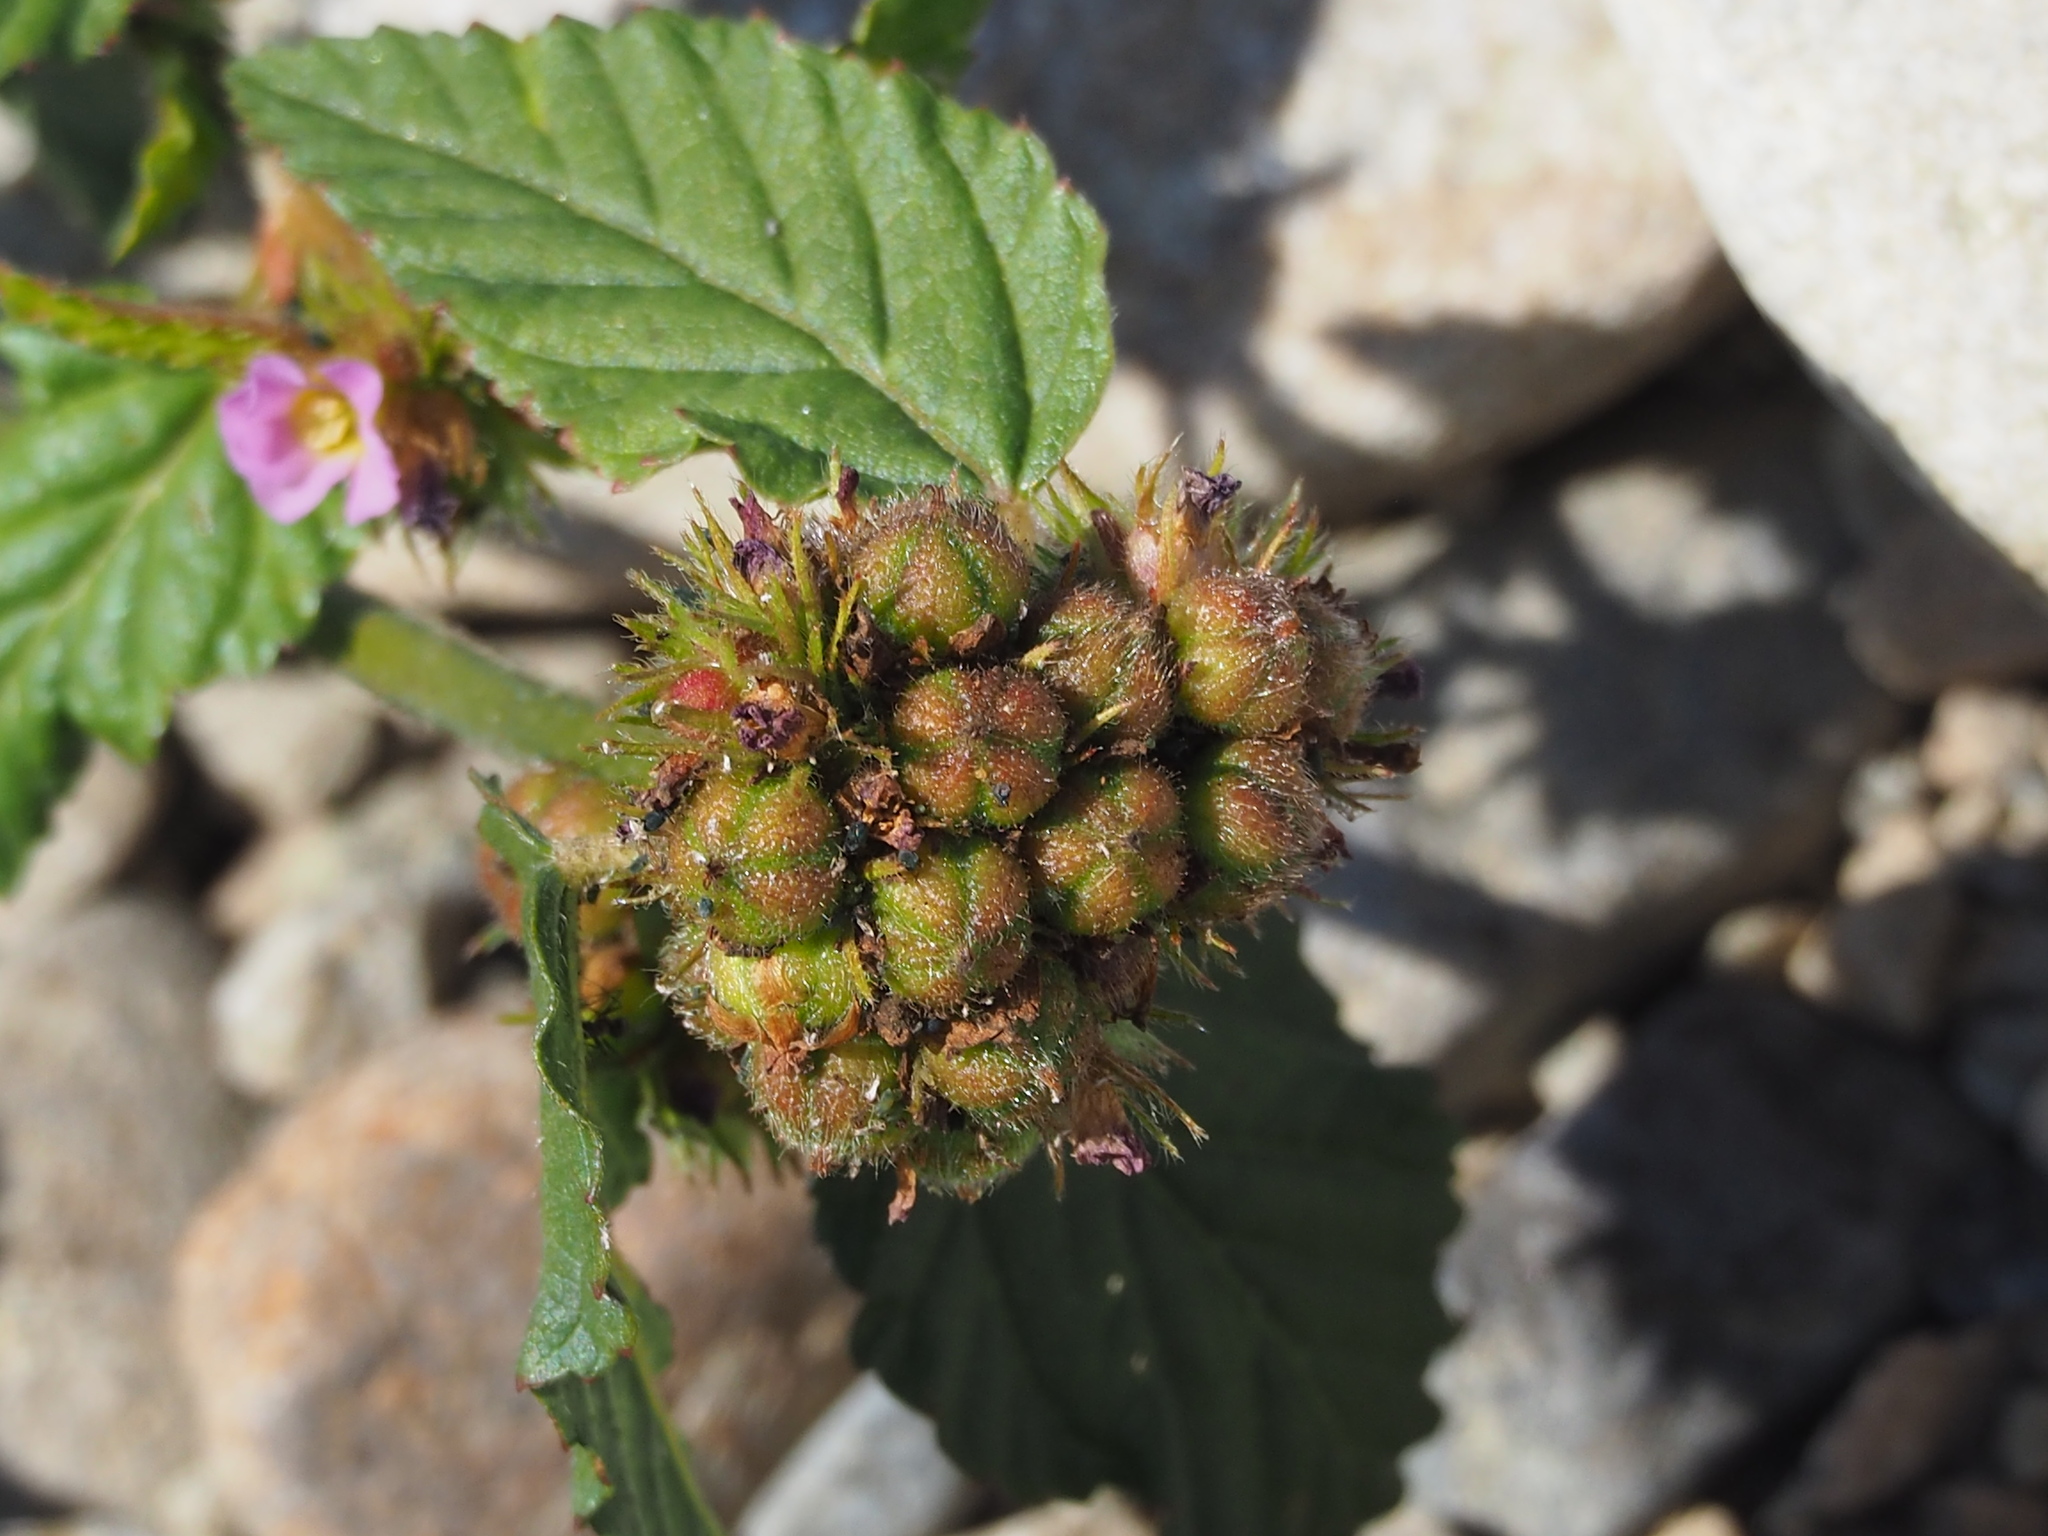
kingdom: Plantae
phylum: Tracheophyta
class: Magnoliopsida
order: Malvales
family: Malvaceae
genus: Melochia
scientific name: Melochia corchorifolia
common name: Chocolateweed
